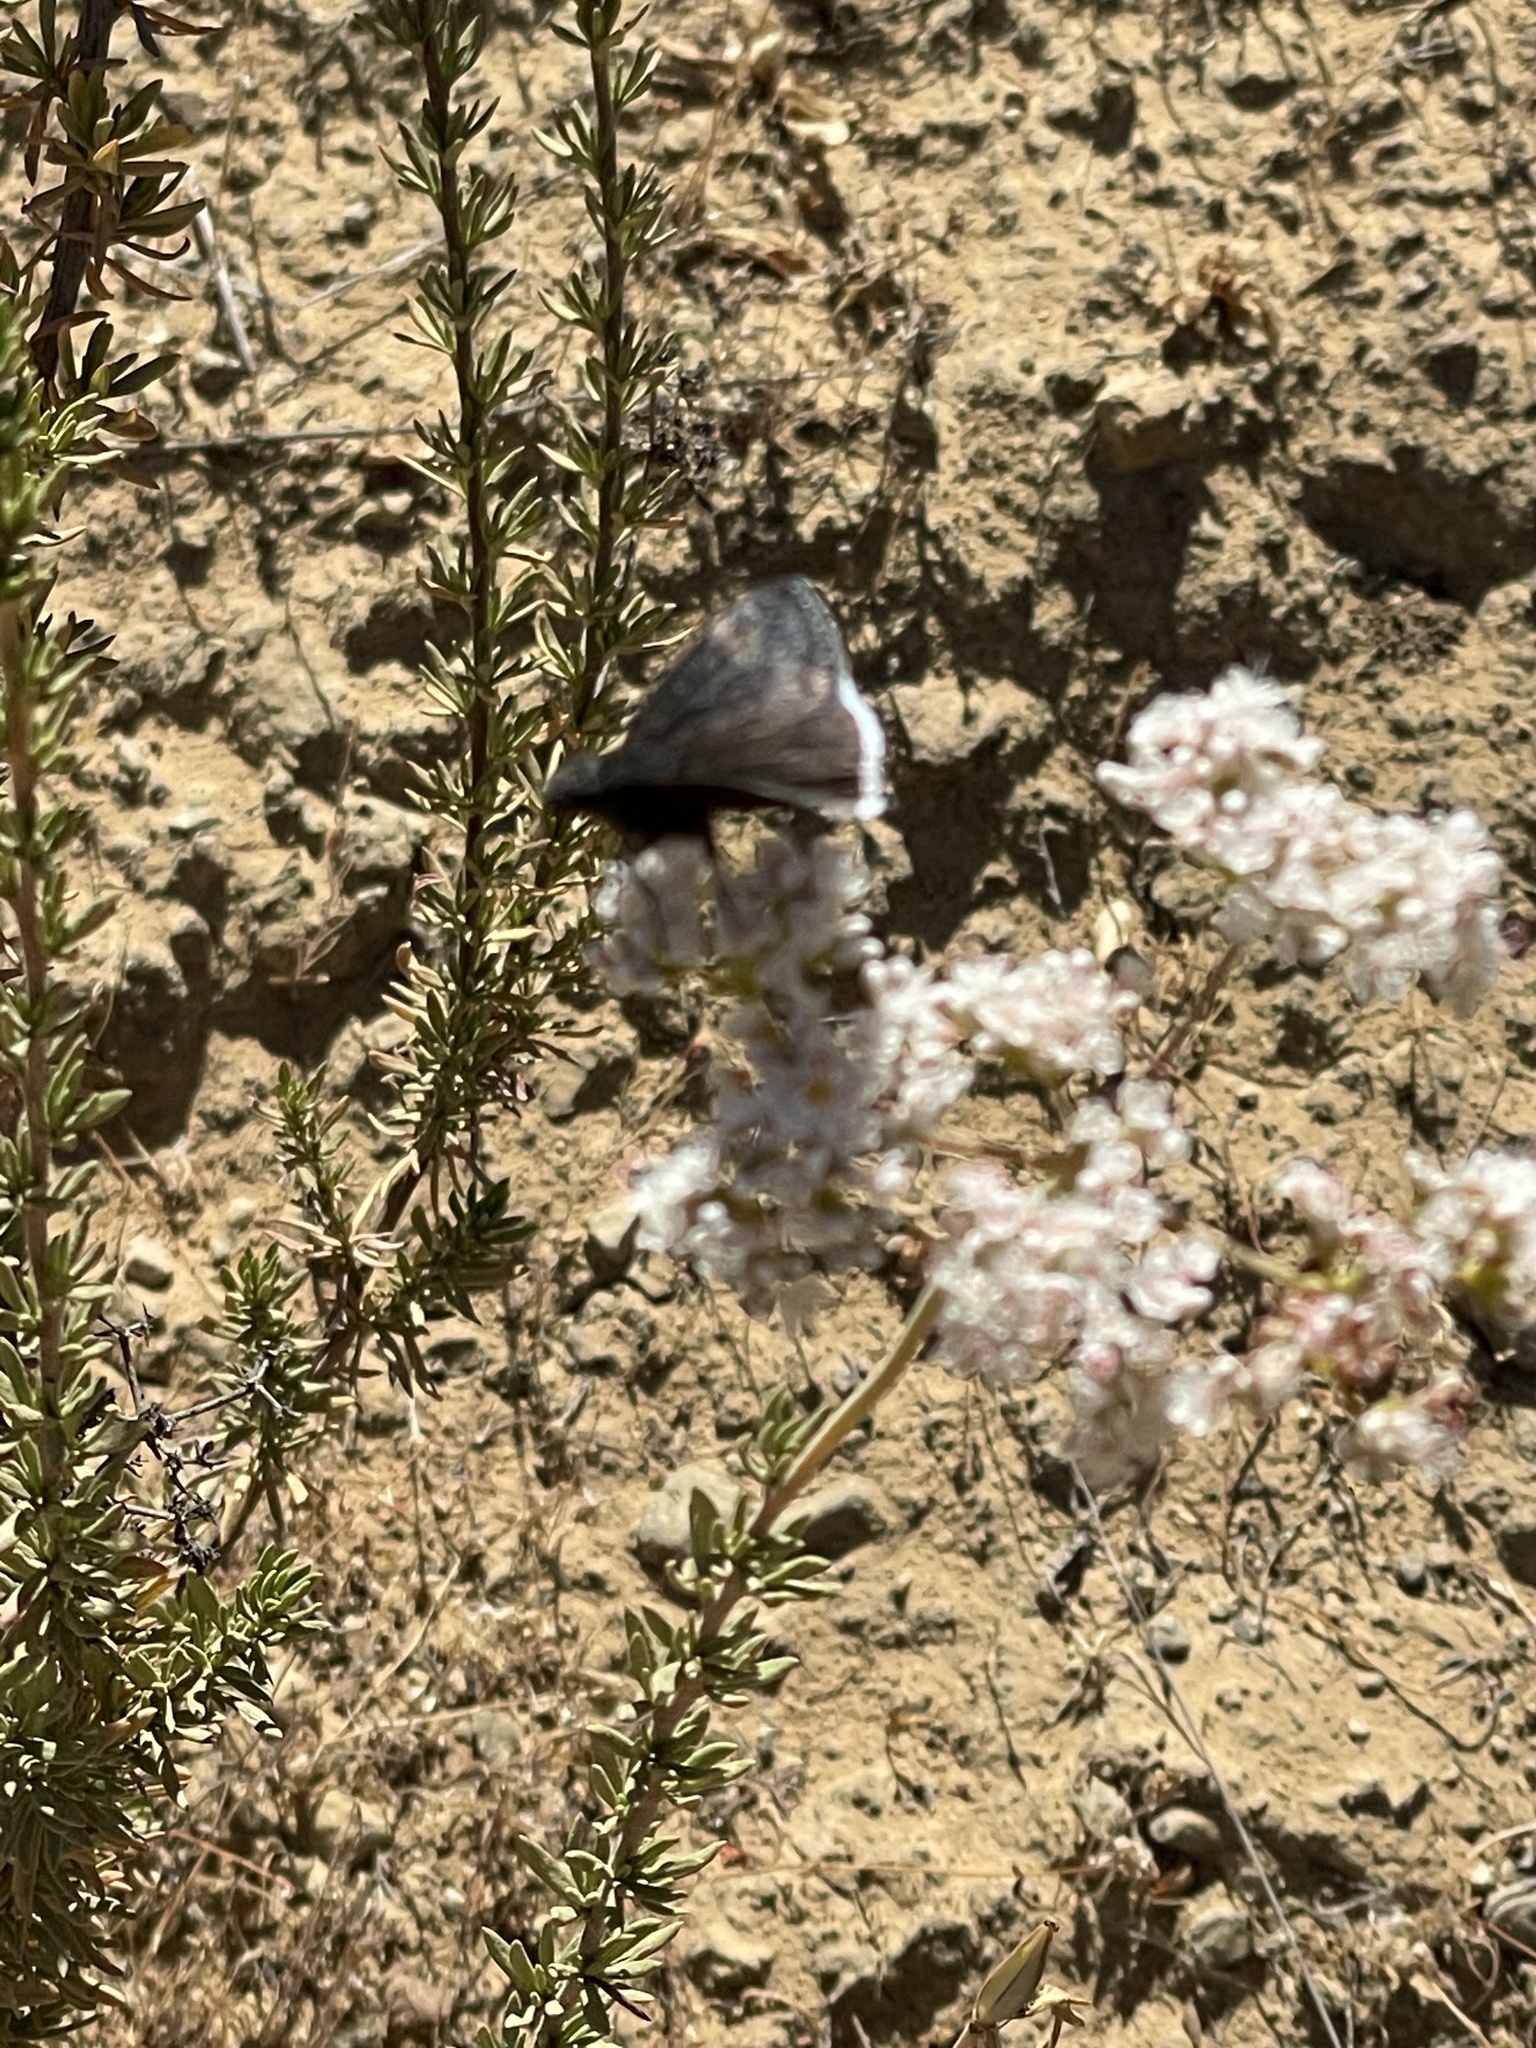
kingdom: Animalia
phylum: Arthropoda
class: Insecta
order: Lepidoptera
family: Hesperiidae
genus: Erynnis
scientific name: Erynnis funeralis
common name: Funereal duskywing
